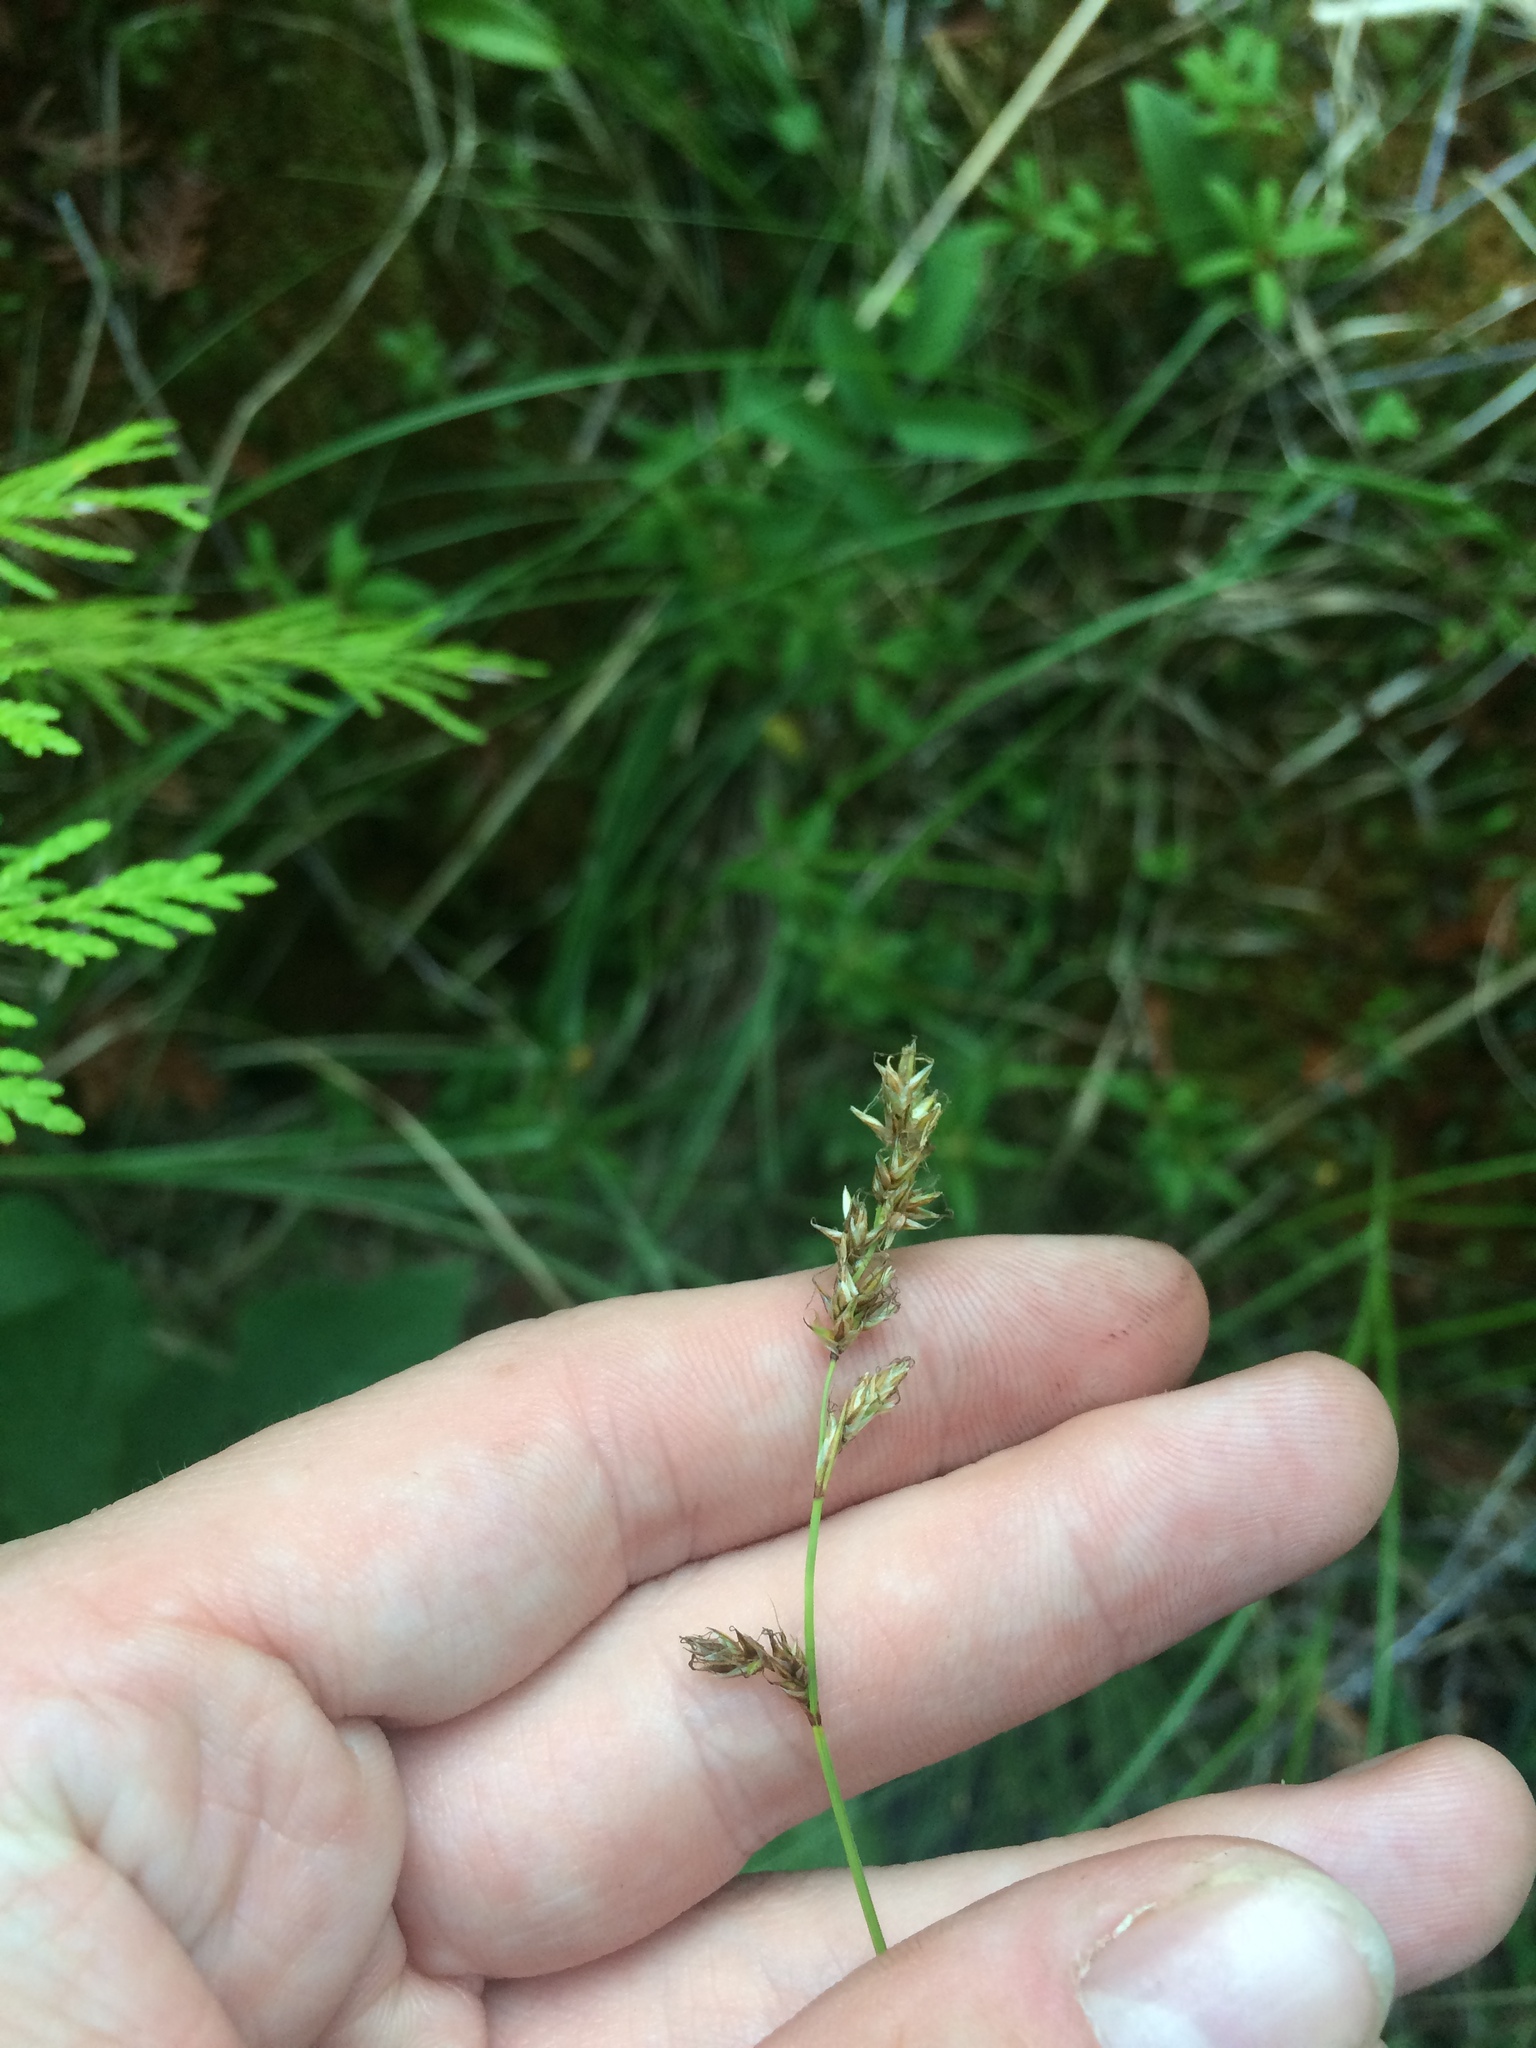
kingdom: Plantae
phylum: Tracheophyta
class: Liliopsida
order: Poales
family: Cyperaceae
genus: Carex
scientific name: Carex prairea
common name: Prairie sedge
